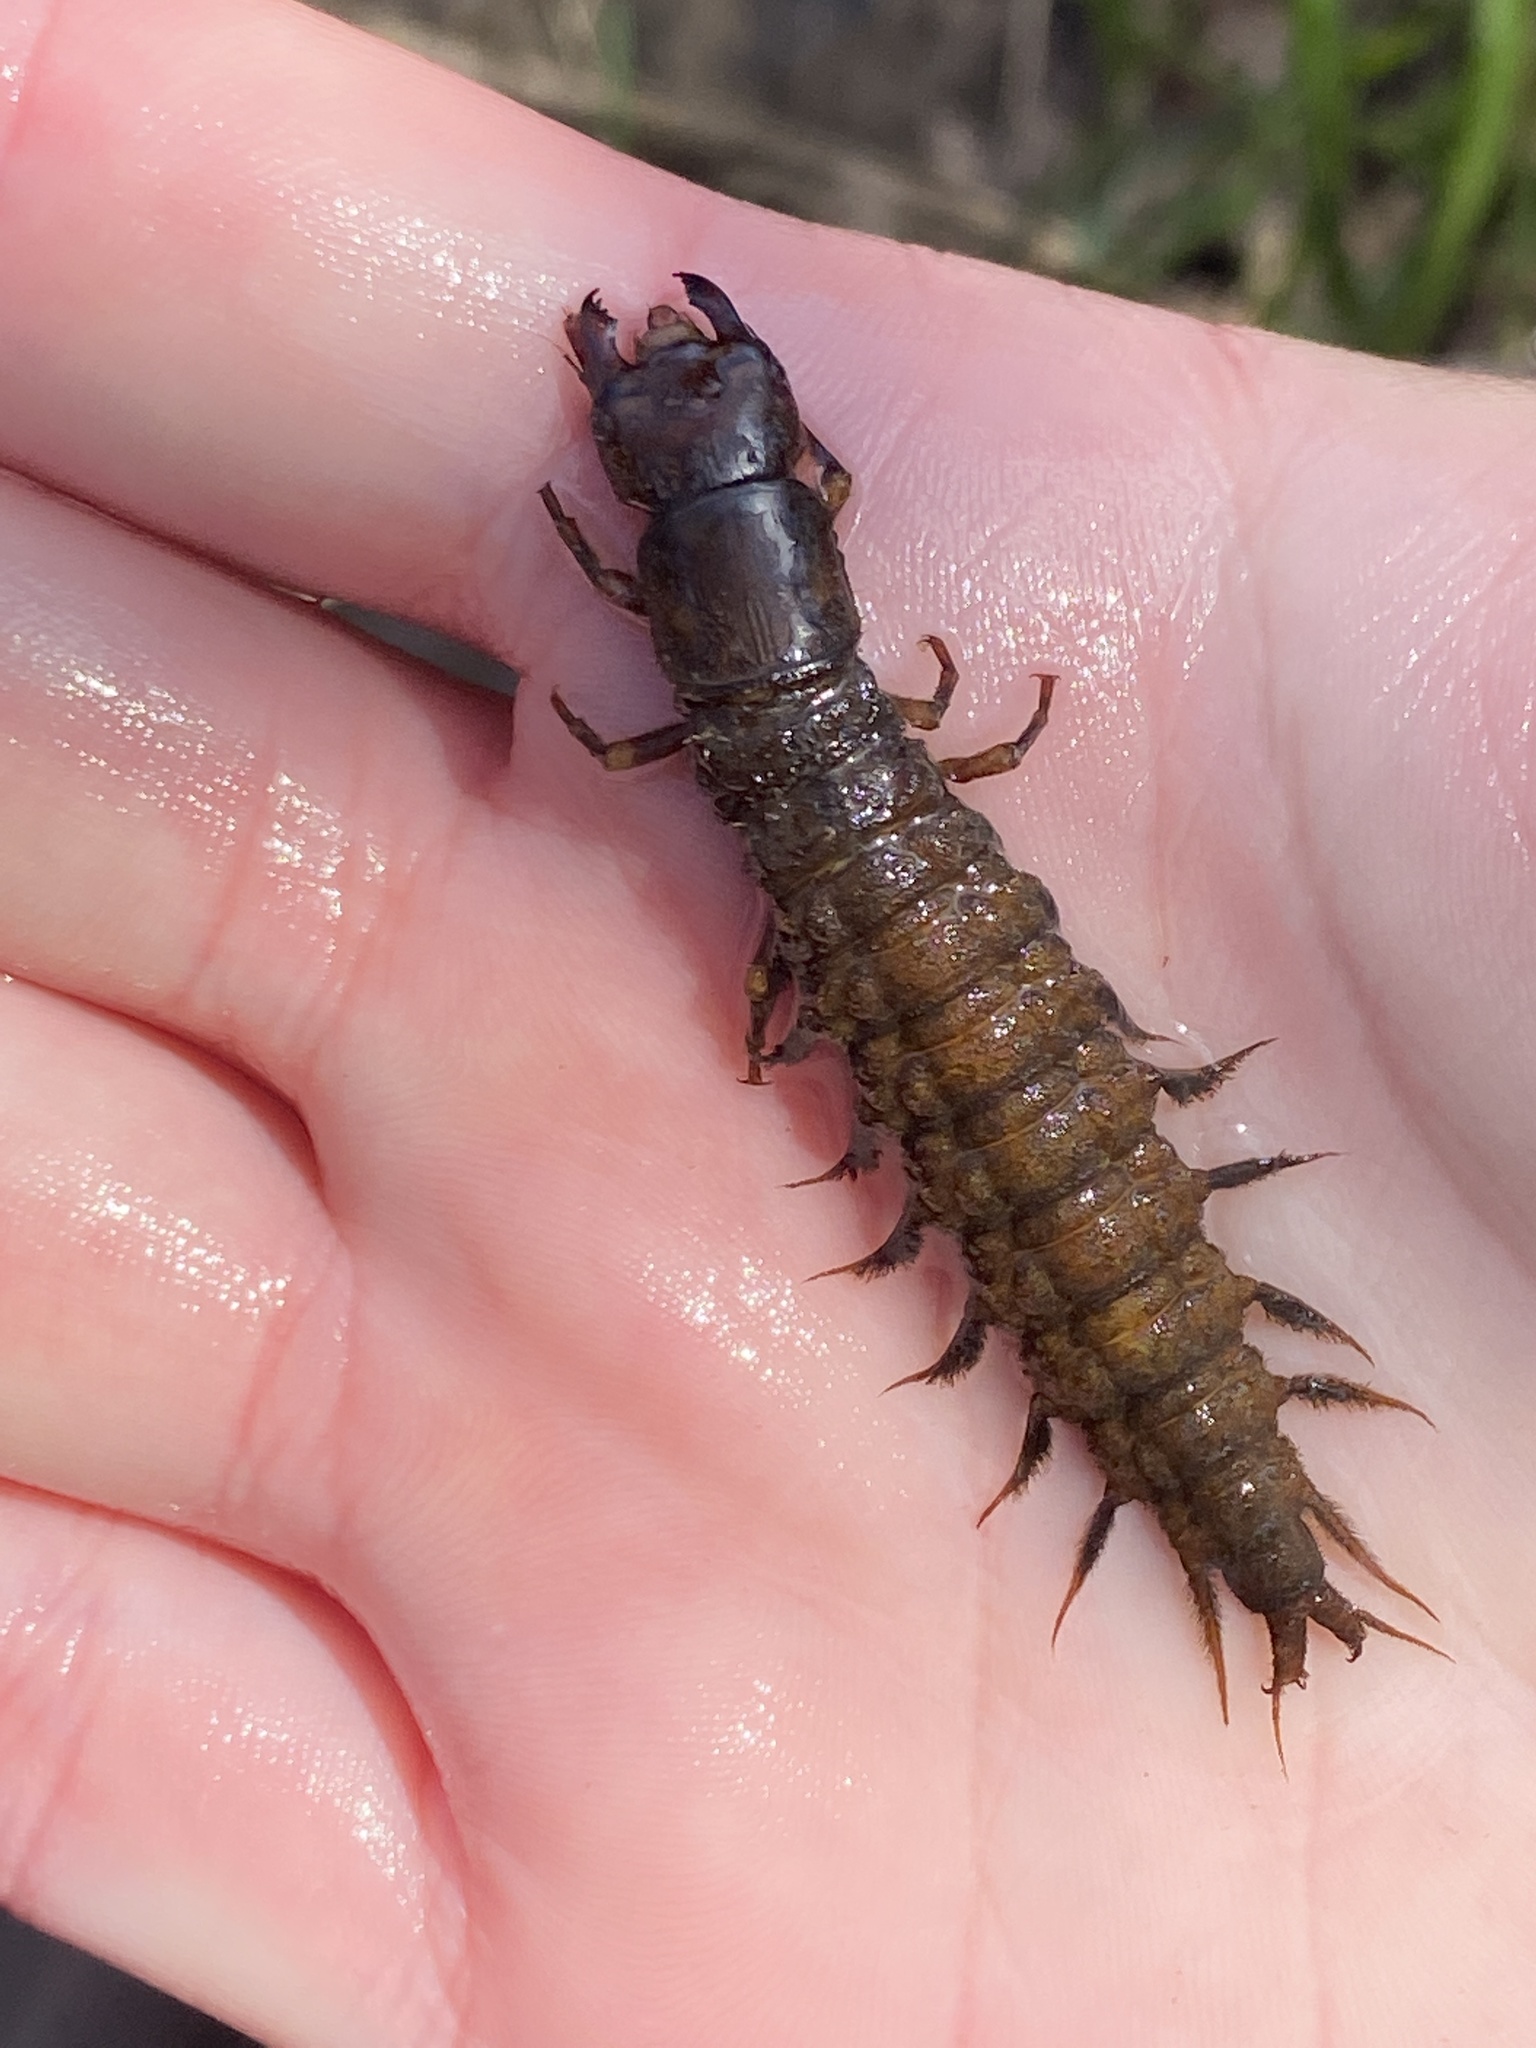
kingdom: Animalia
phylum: Arthropoda
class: Insecta
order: Megaloptera
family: Corydalidae
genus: Corydalus
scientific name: Corydalus cornutus
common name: Dobsonfly
